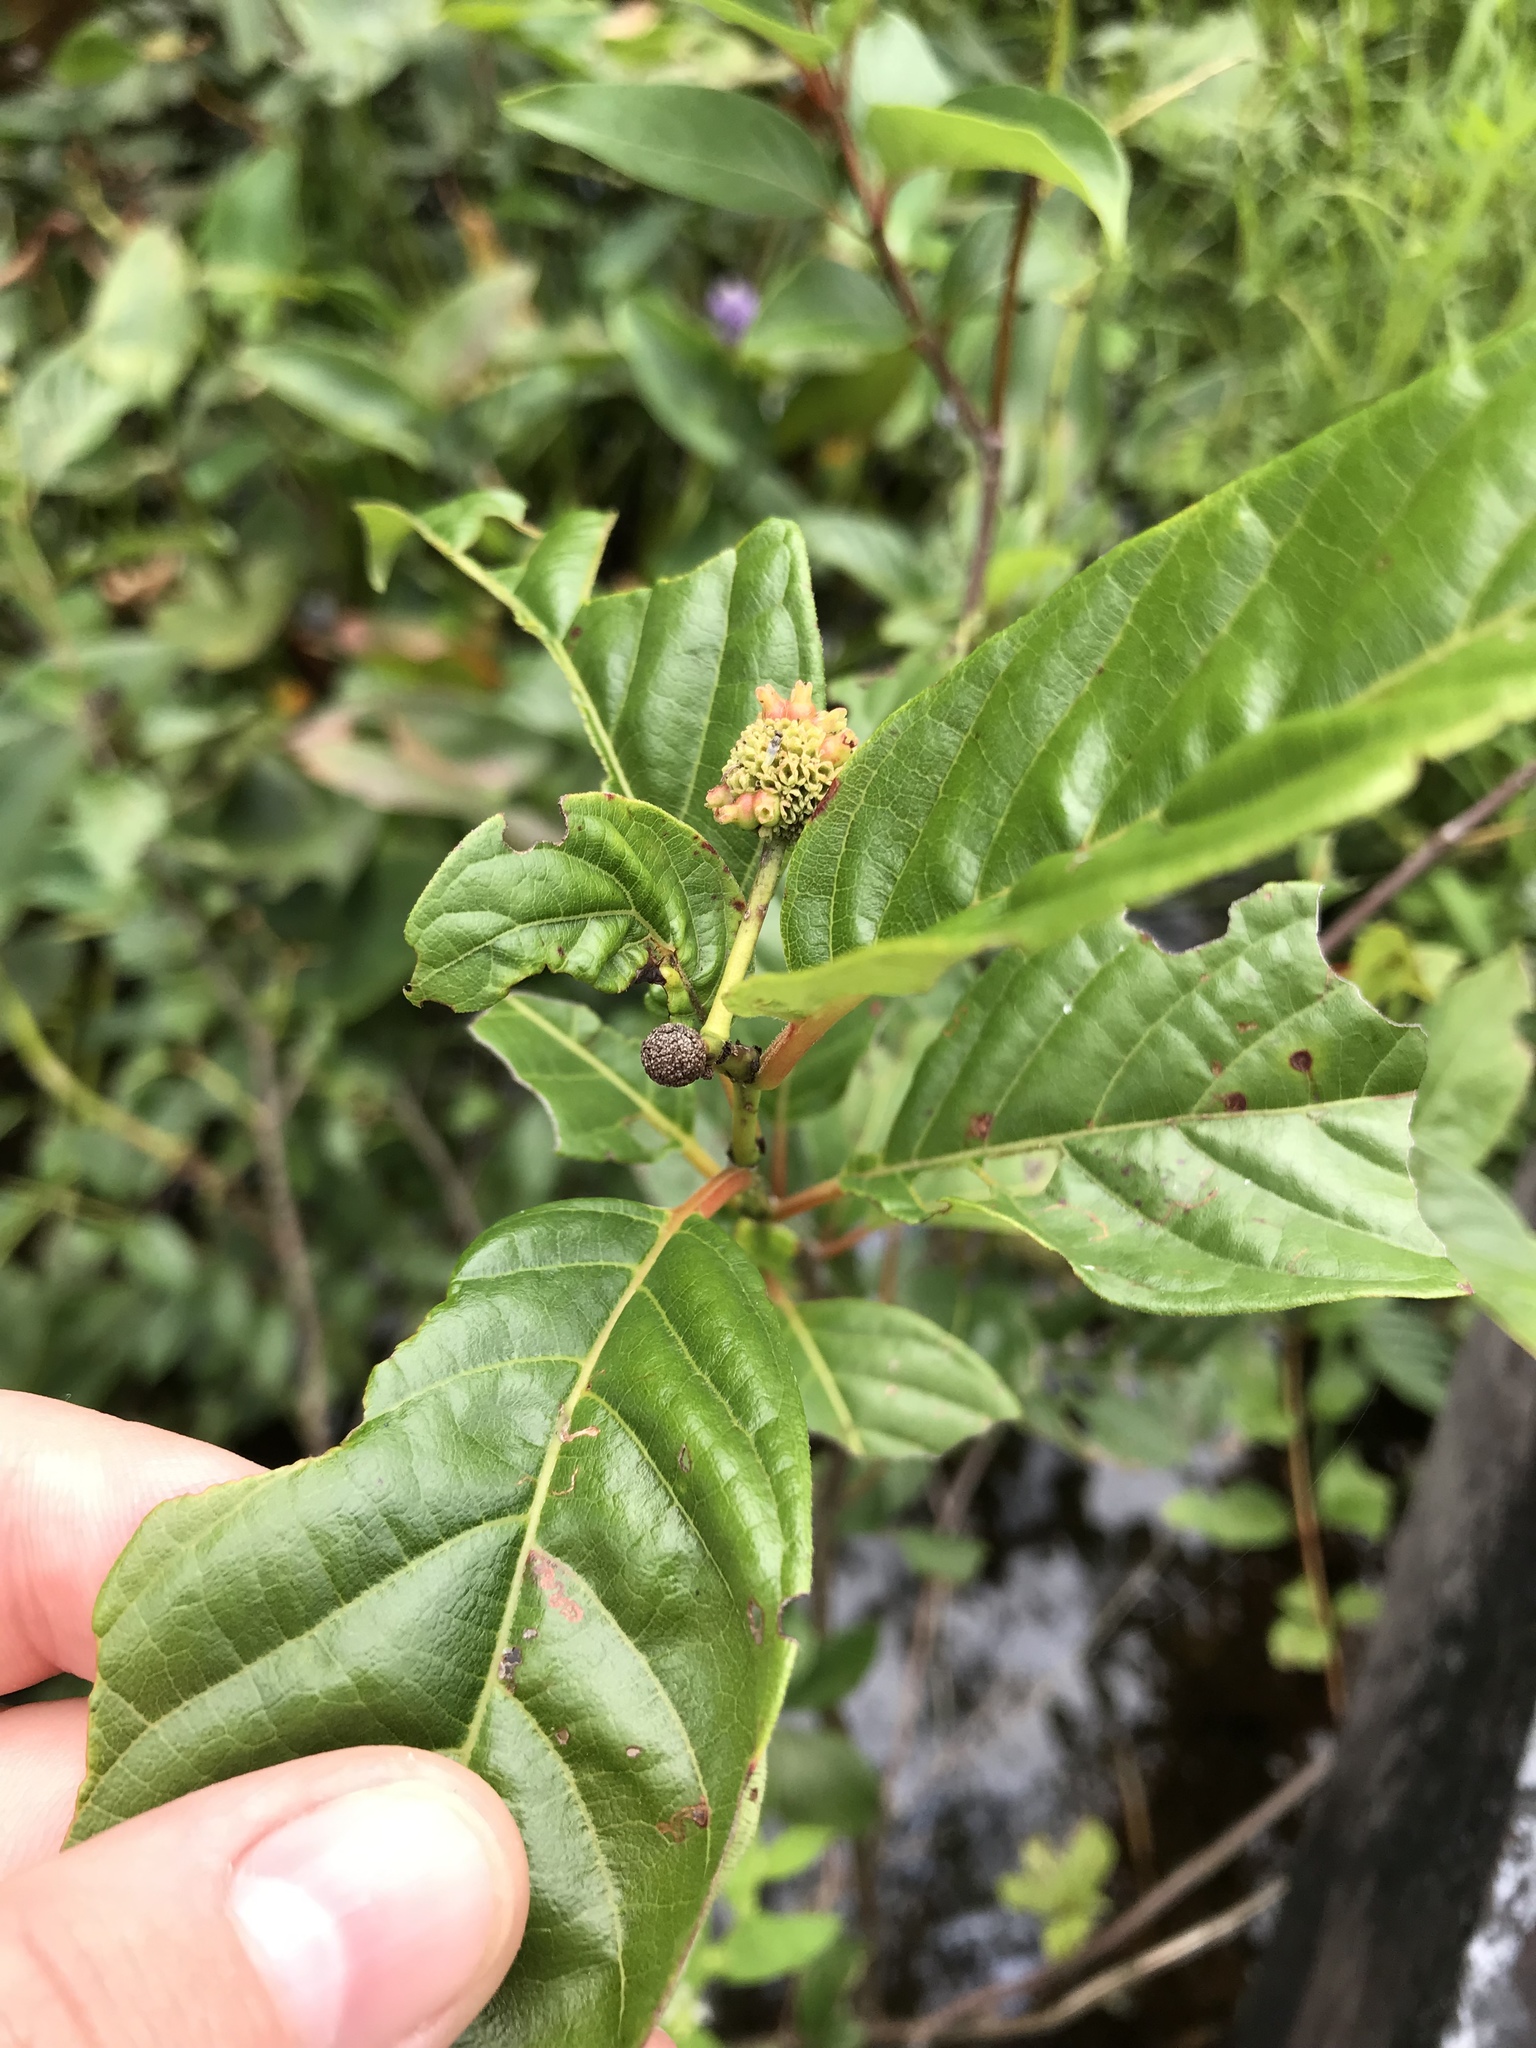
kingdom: Plantae
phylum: Tracheophyta
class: Magnoliopsida
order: Gentianales
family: Rubiaceae
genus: Cephalanthus
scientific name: Cephalanthus occidentalis
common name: Button-willow
